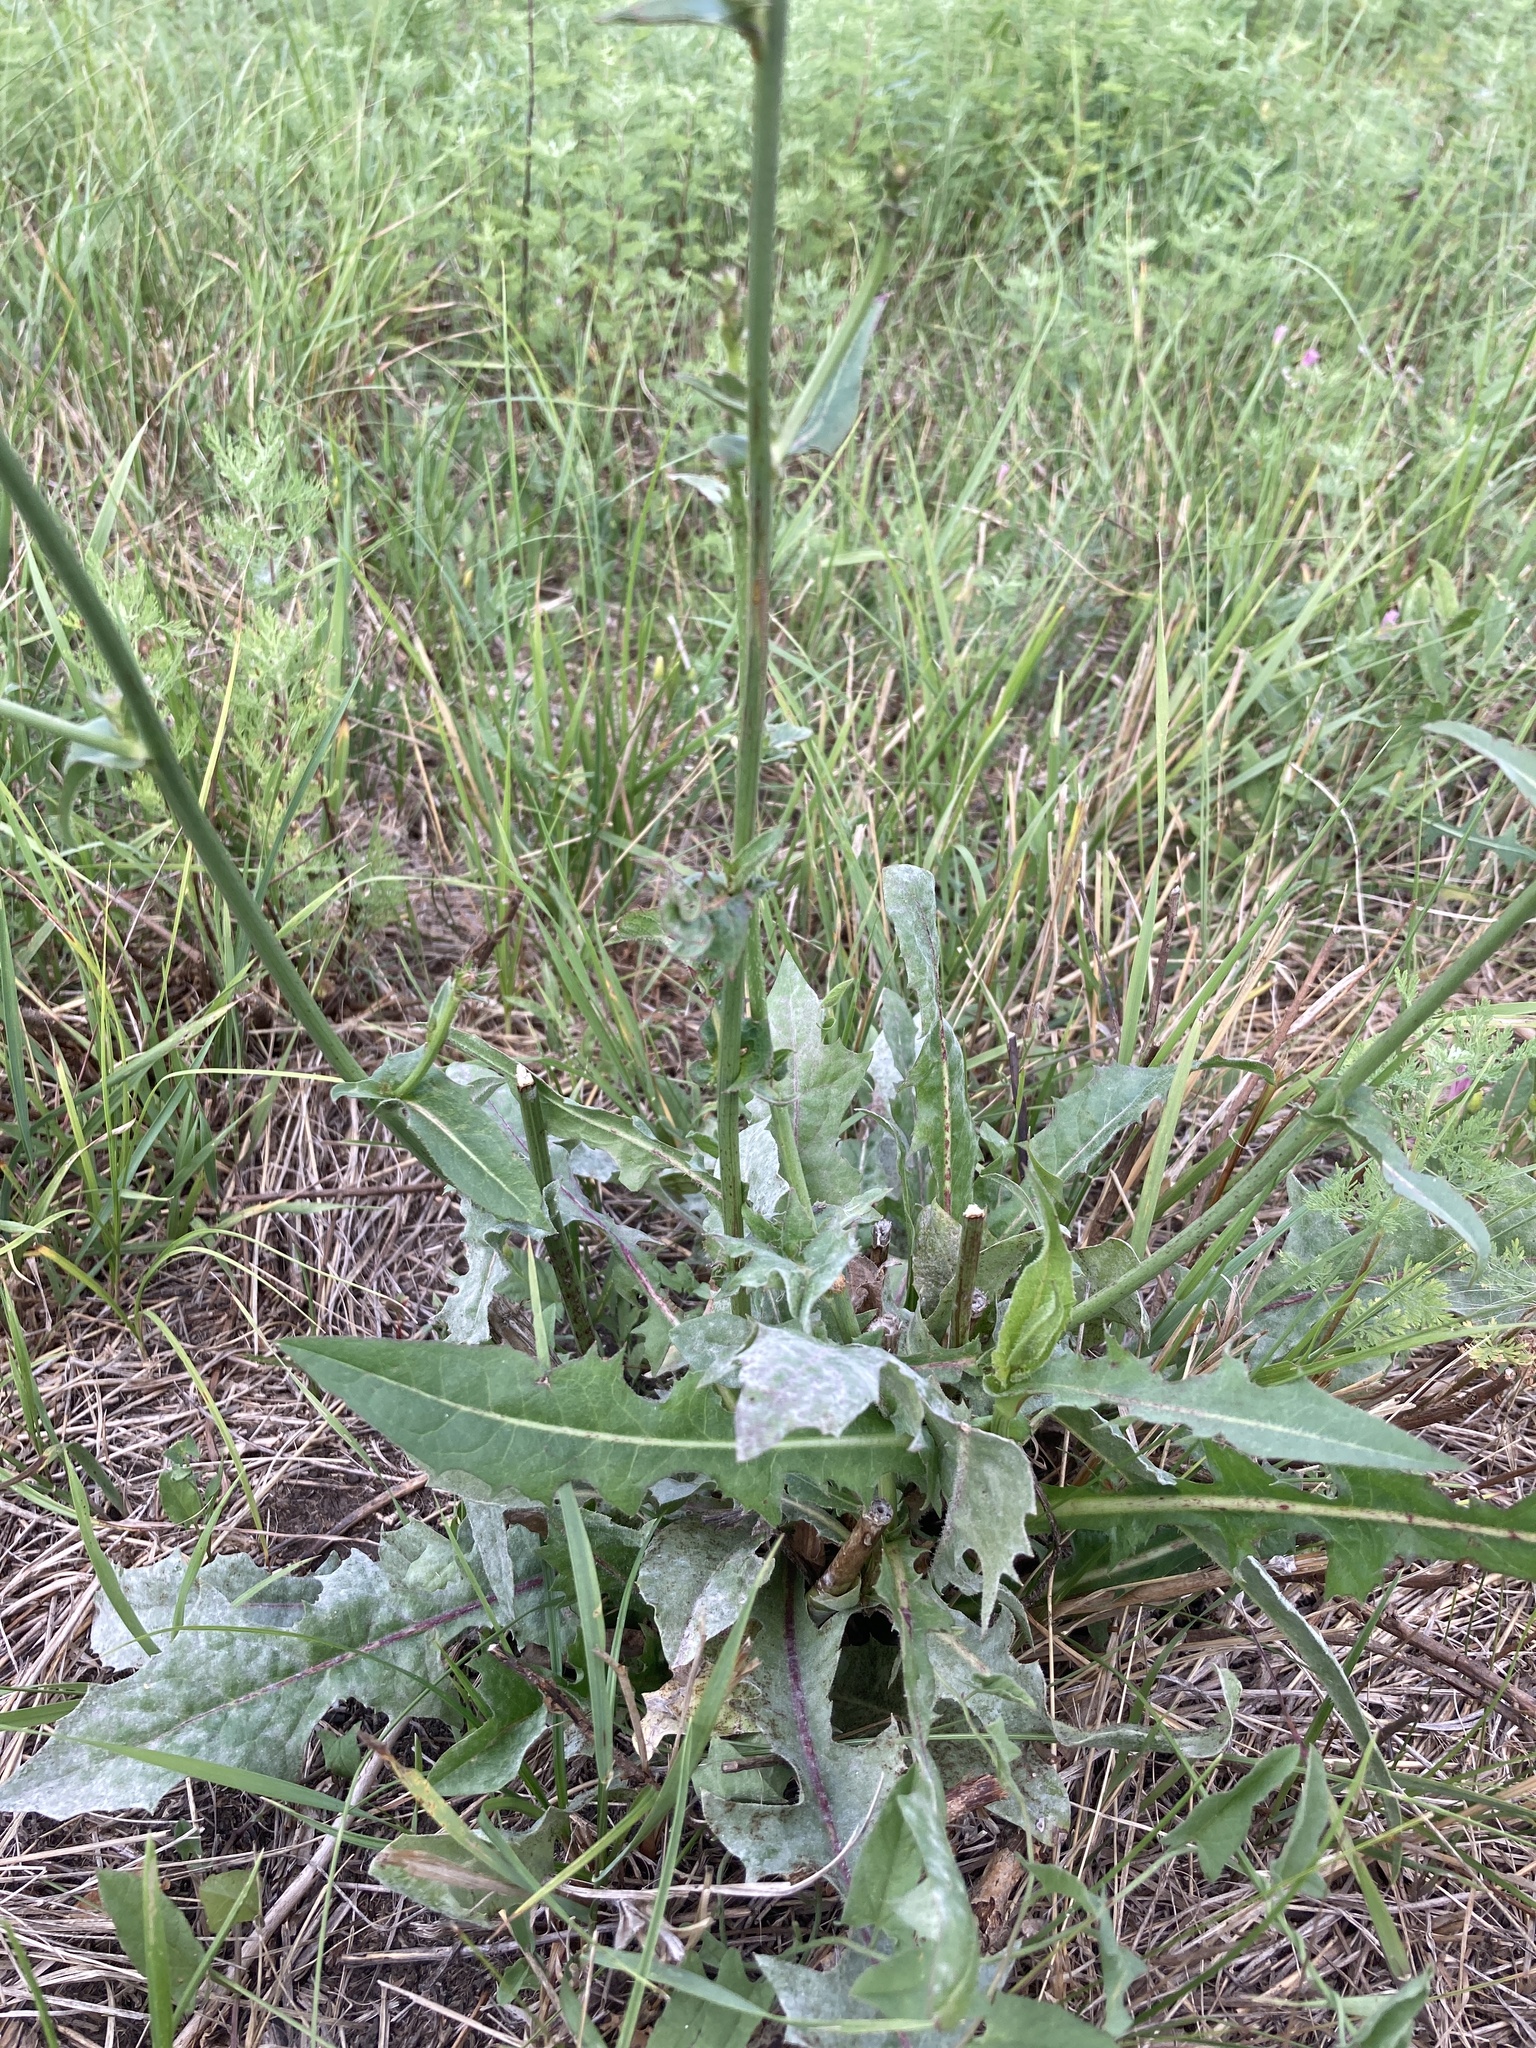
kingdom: Plantae
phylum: Tracheophyta
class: Magnoliopsida
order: Asterales
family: Asteraceae
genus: Cichorium
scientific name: Cichorium intybus
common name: Chicory
